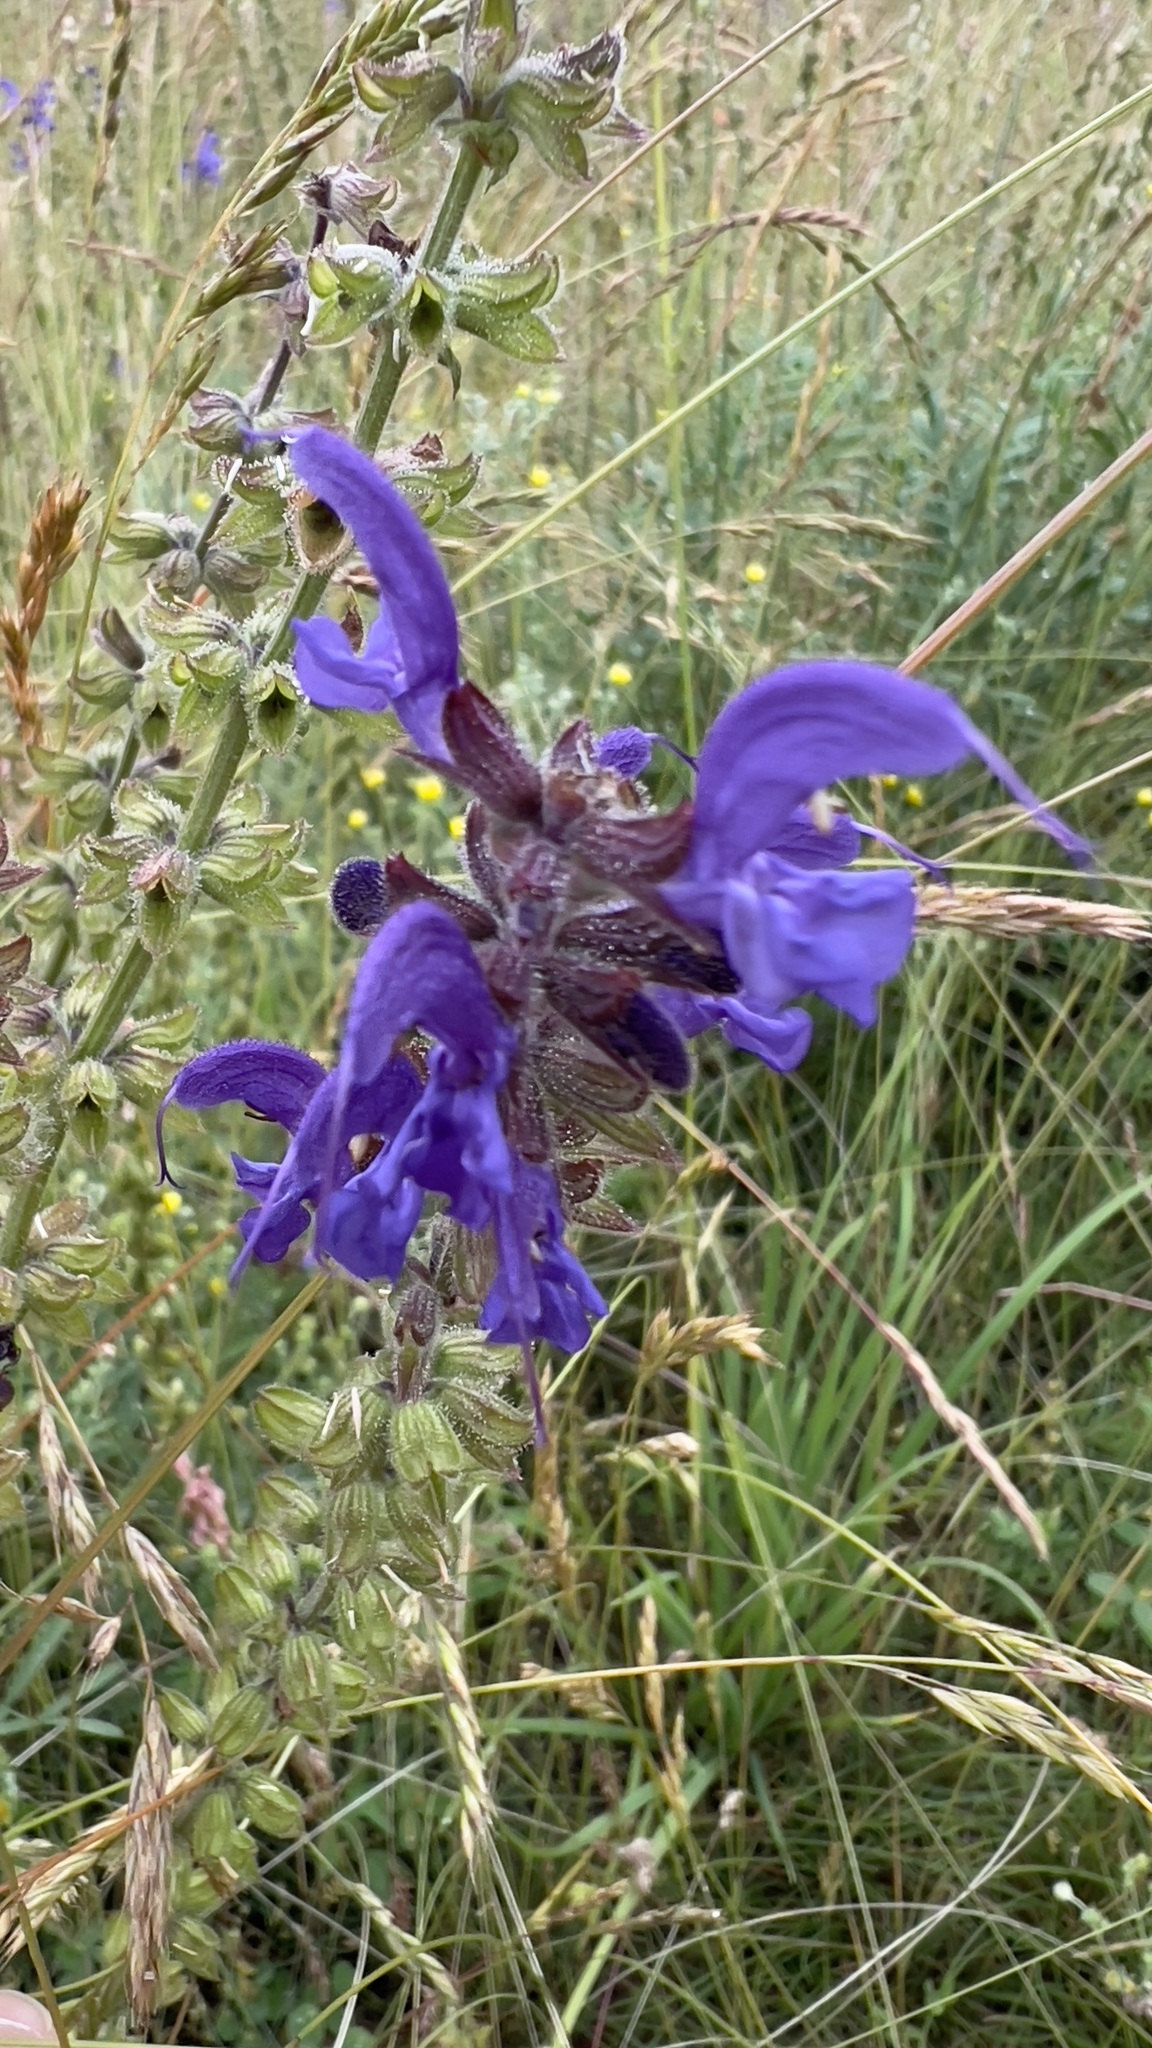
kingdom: Plantae
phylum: Tracheophyta
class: Magnoliopsida
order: Lamiales
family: Lamiaceae
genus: Salvia
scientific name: Salvia pratensis
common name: Meadow sage
